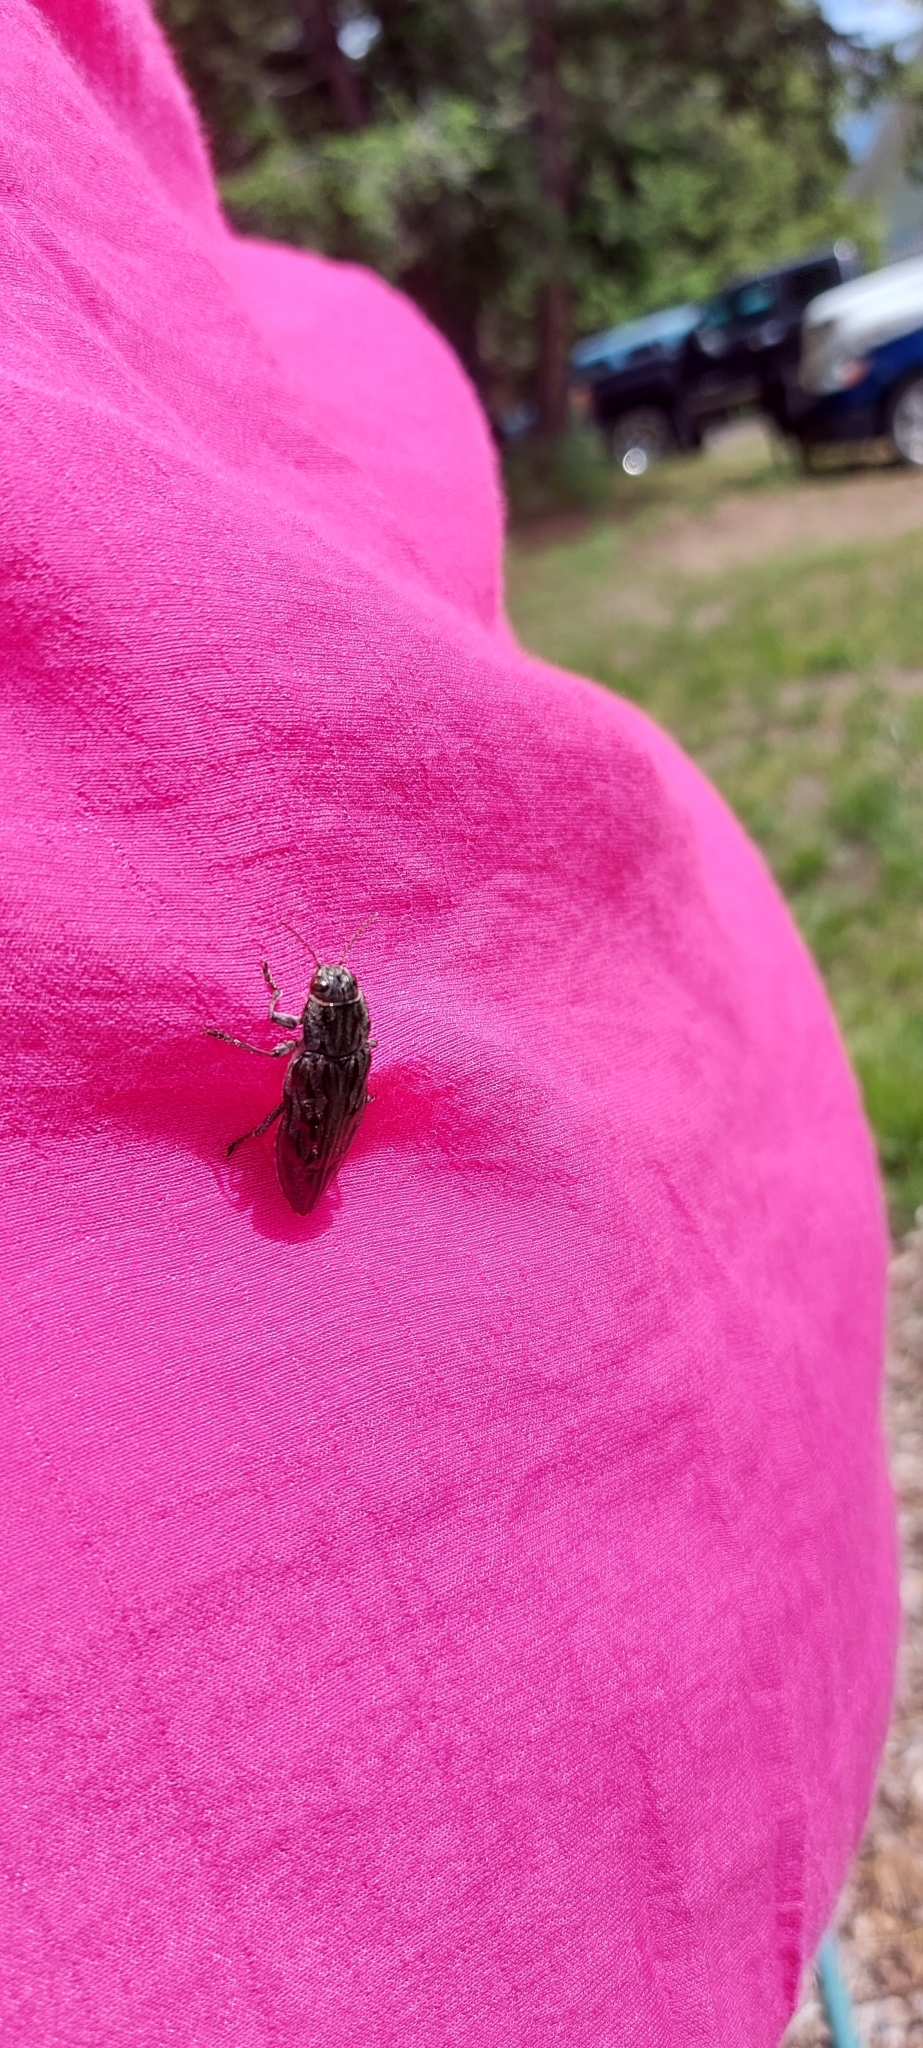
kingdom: Animalia
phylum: Arthropoda
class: Insecta
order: Coleoptera
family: Buprestidae
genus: Chalcophora
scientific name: Chalcophora angulicollis
